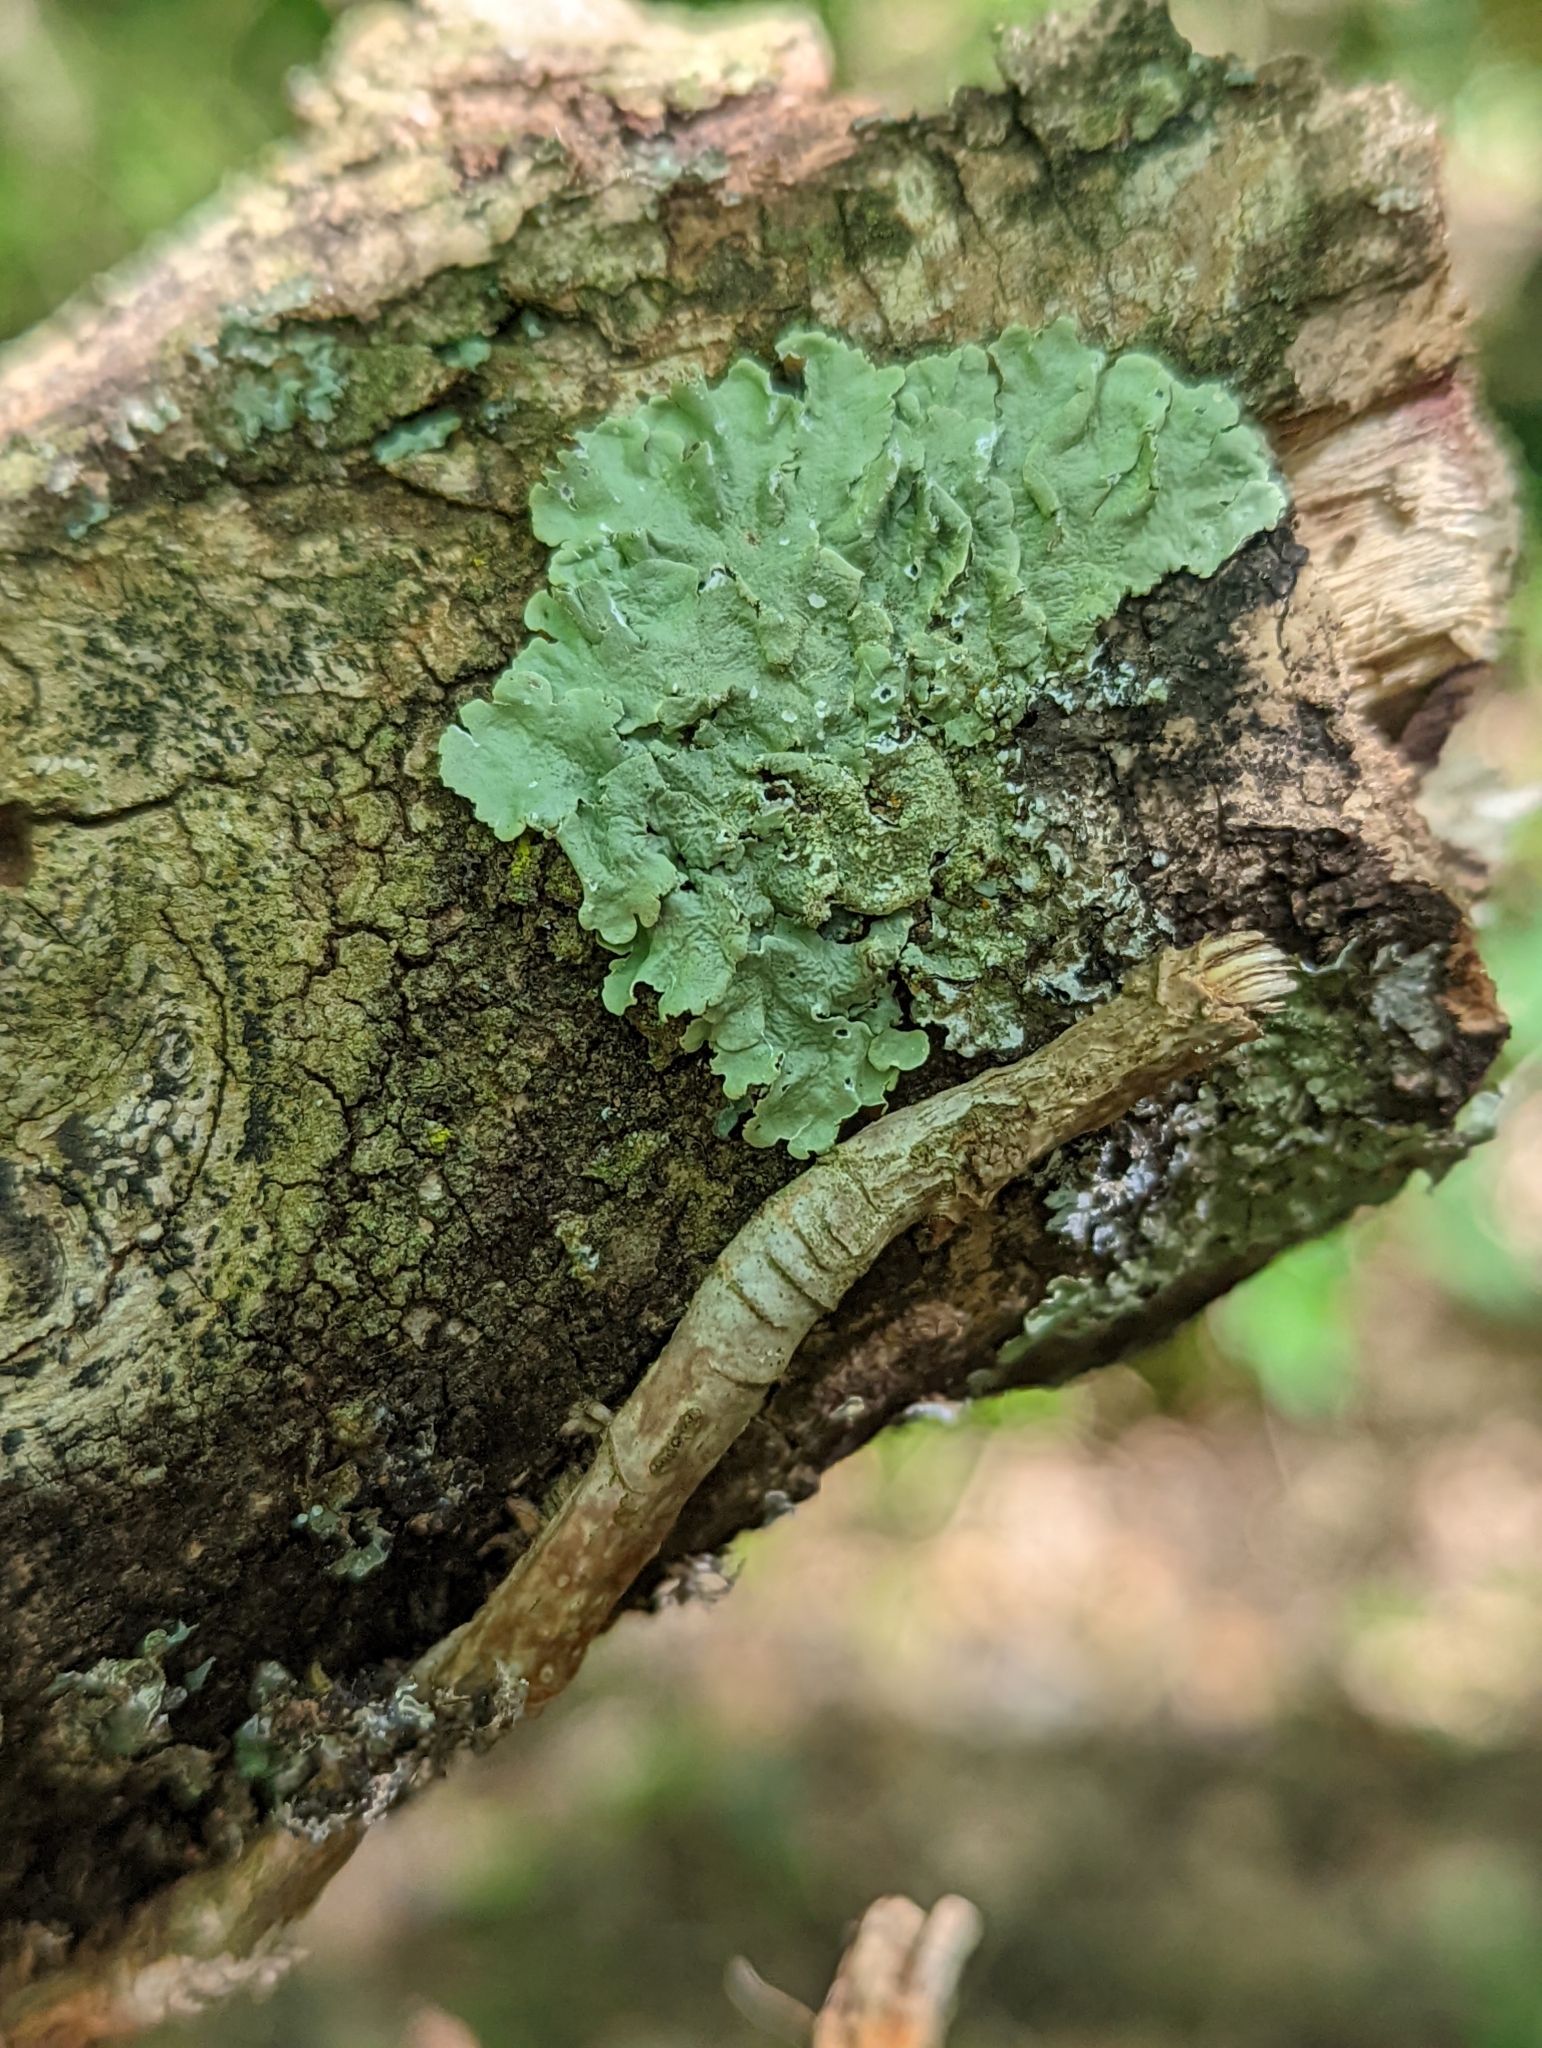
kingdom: Fungi
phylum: Ascomycota
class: Lecanoromycetes
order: Lecanorales
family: Parmeliaceae
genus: Flavoparmelia
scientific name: Flavoparmelia caperata
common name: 40-mile per hour lichen
